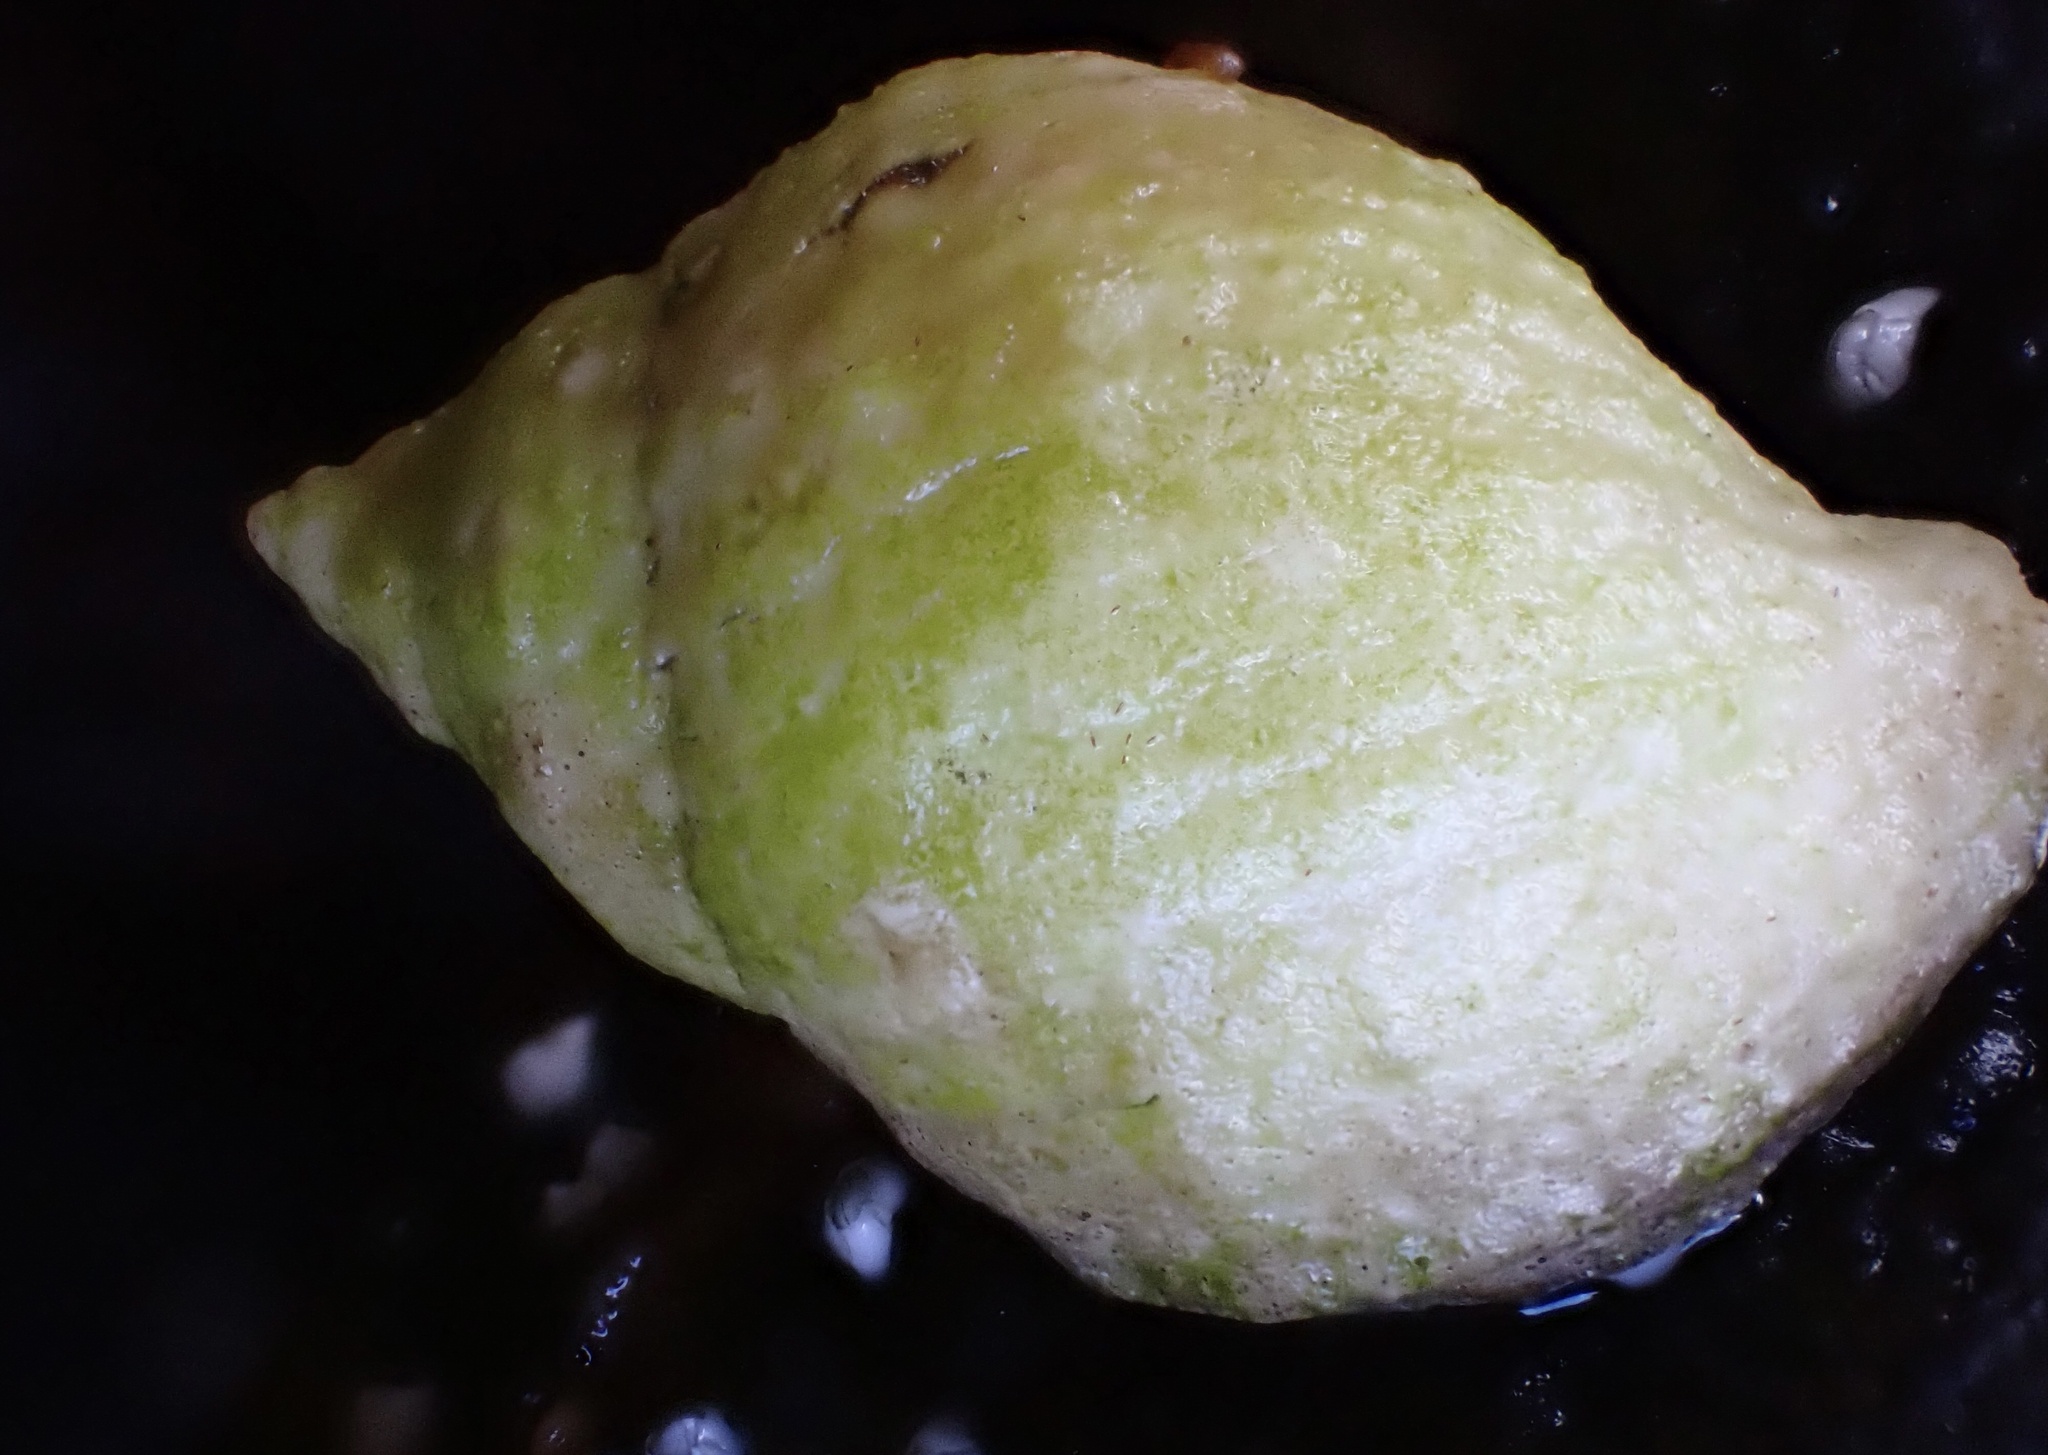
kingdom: Animalia
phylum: Mollusca
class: Gastropoda
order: Neogastropoda
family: Muricidae
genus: Nucella
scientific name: Nucella lapillus
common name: Dog whelk
